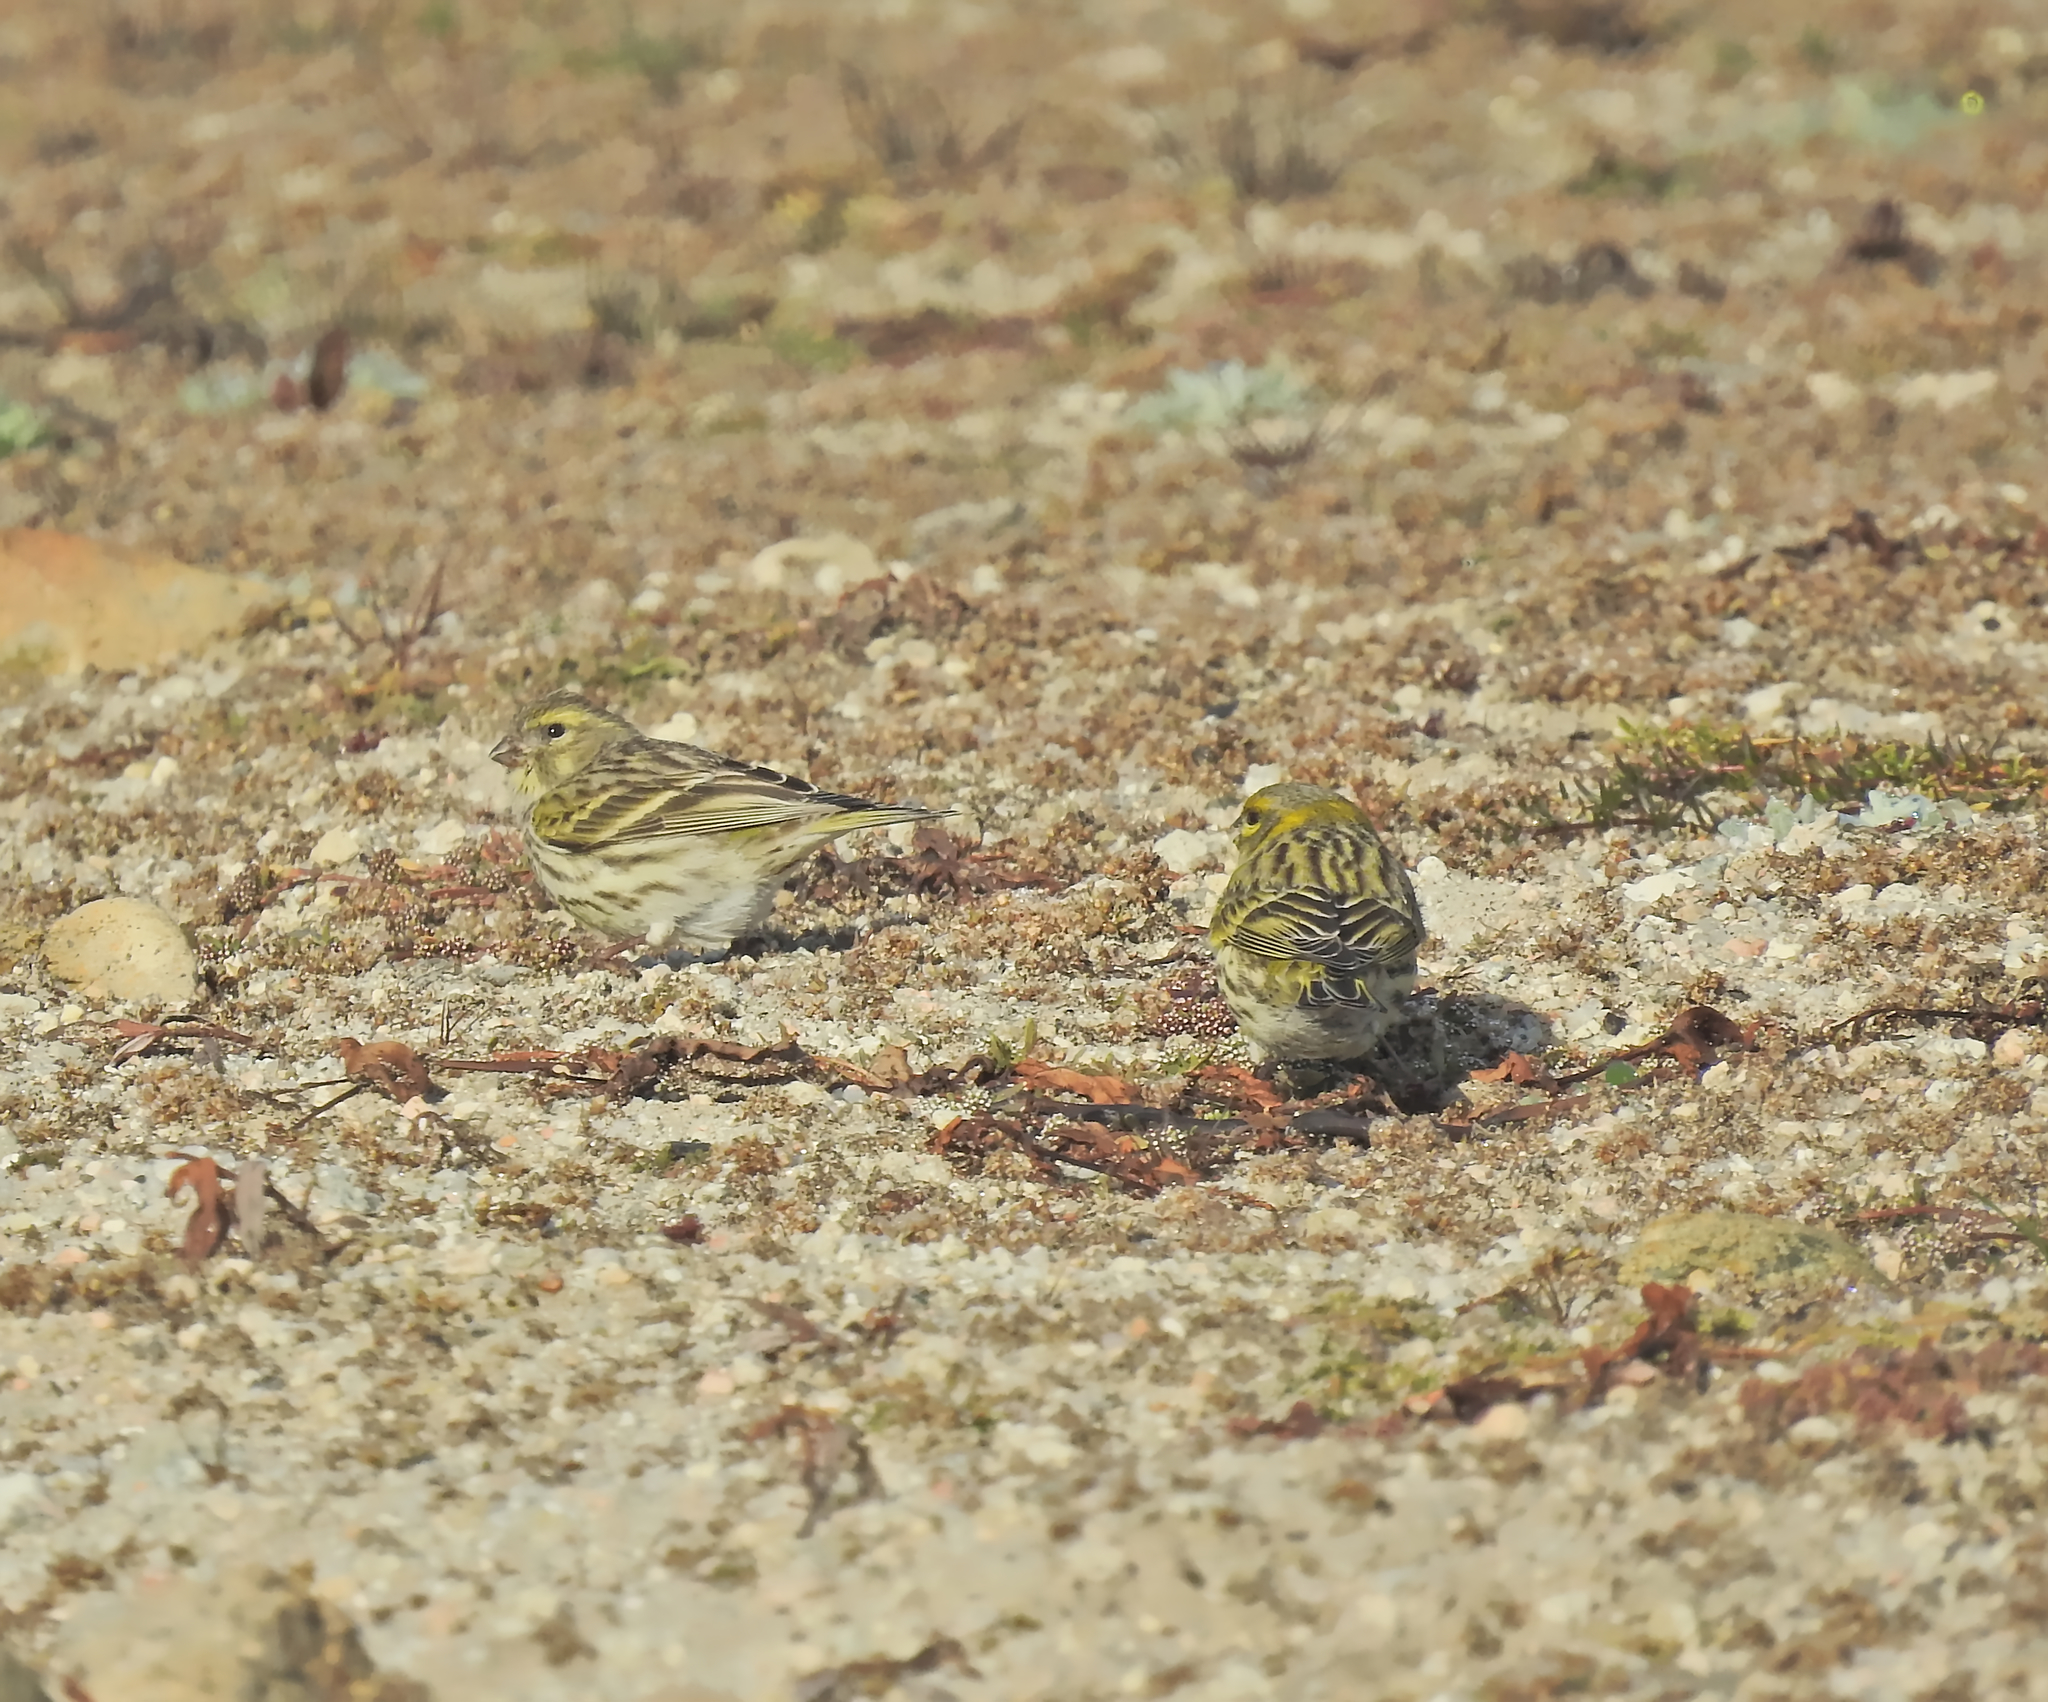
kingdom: Animalia
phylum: Chordata
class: Aves
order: Passeriformes
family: Fringillidae
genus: Serinus
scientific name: Serinus serinus
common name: European serin
